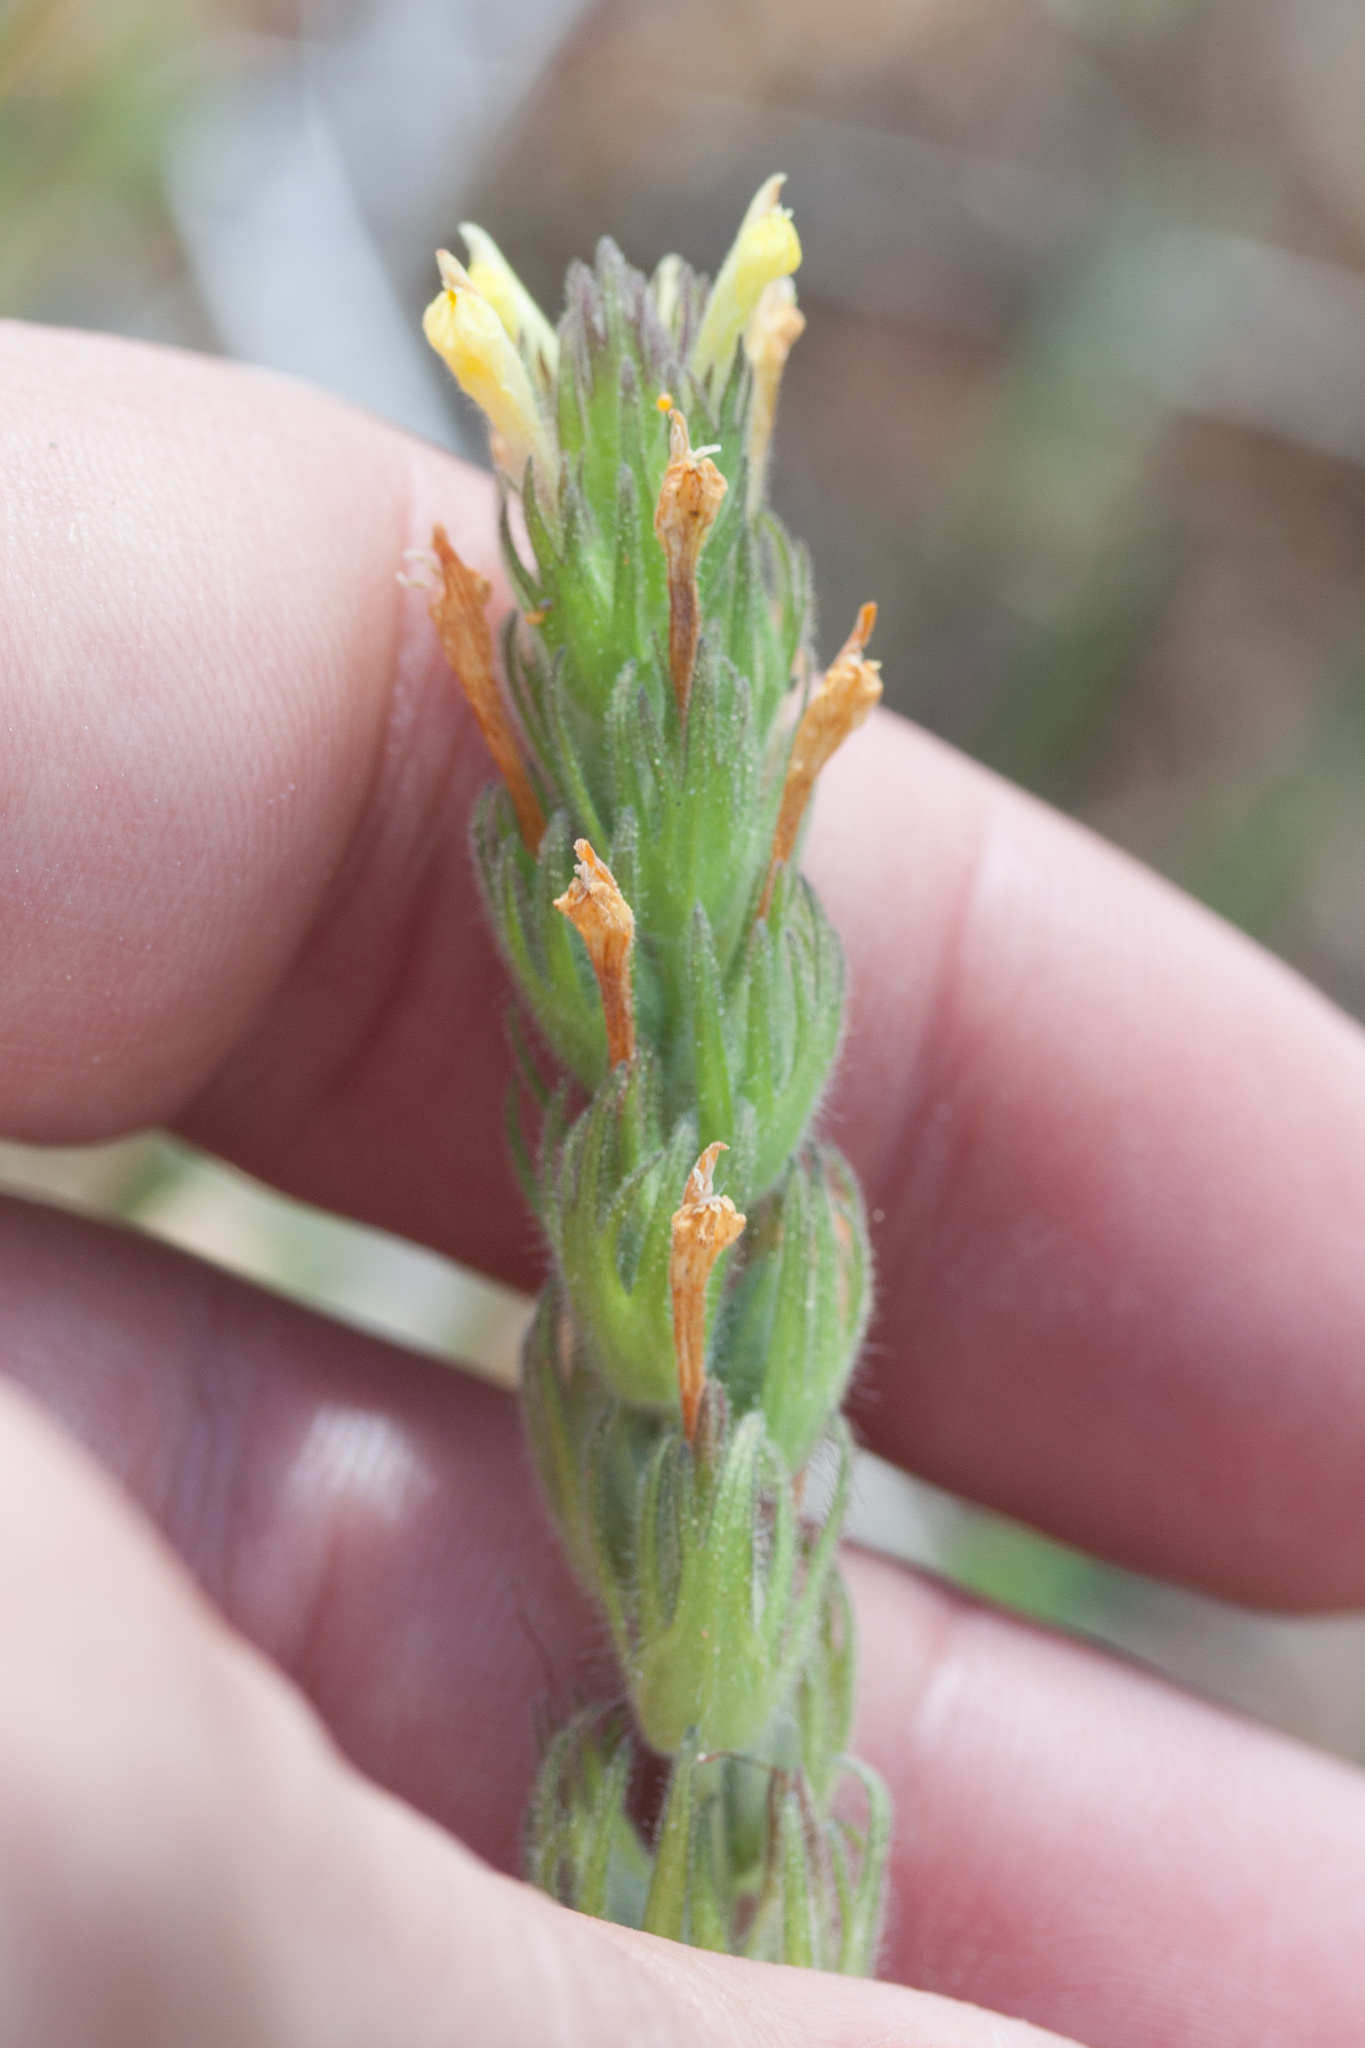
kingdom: Plantae
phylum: Tracheophyta
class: Magnoliopsida
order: Lamiales
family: Orobanchaceae
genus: Castilleja
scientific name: Castilleja tenuis
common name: Hairy indian paintbrush
